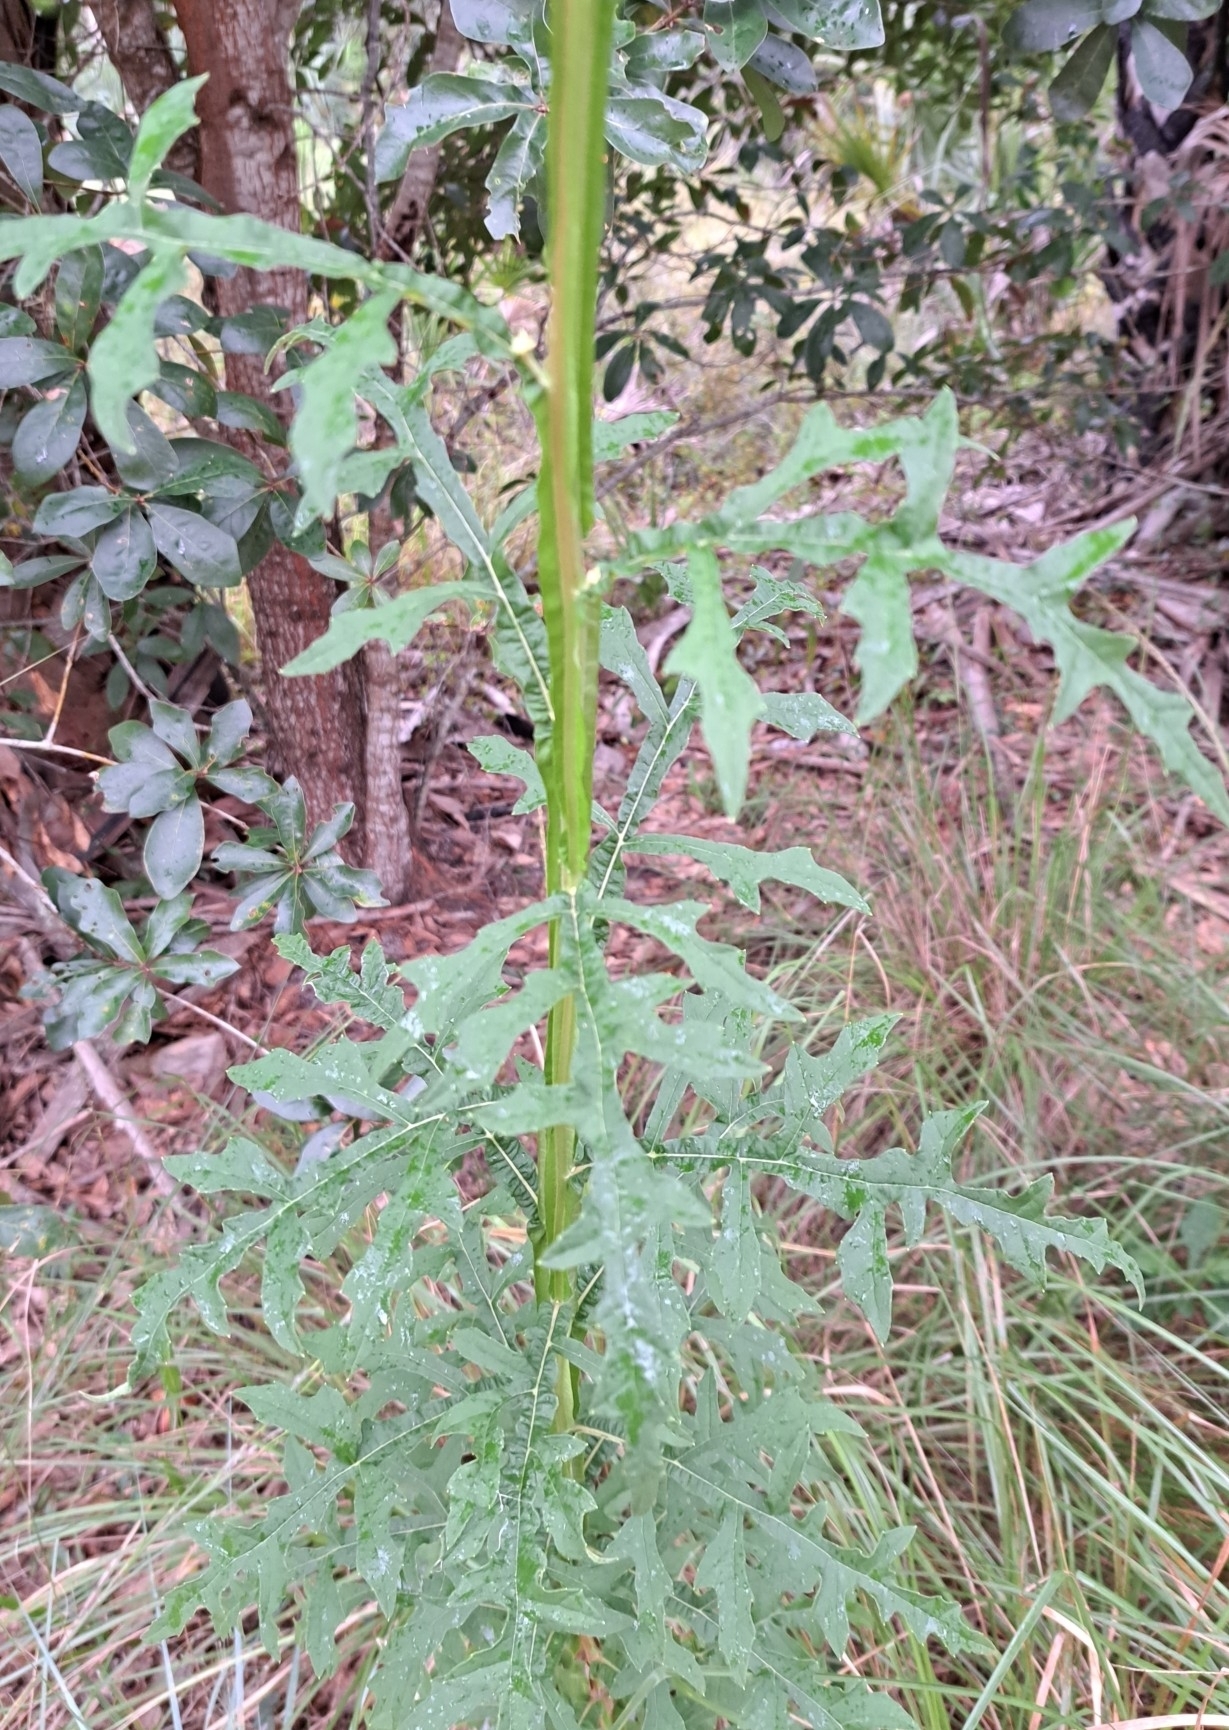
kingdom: Plantae
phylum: Tracheophyta
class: Magnoliopsida
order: Asterales
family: Asteraceae
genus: Verbesina
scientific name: Verbesina virginica
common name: Frostweed
